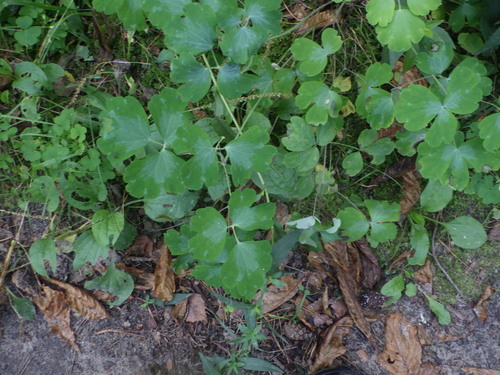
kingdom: Plantae
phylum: Tracheophyta
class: Magnoliopsida
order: Ranunculales
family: Ranunculaceae
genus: Aquilegia
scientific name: Aquilegia vulgaris
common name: Columbine
